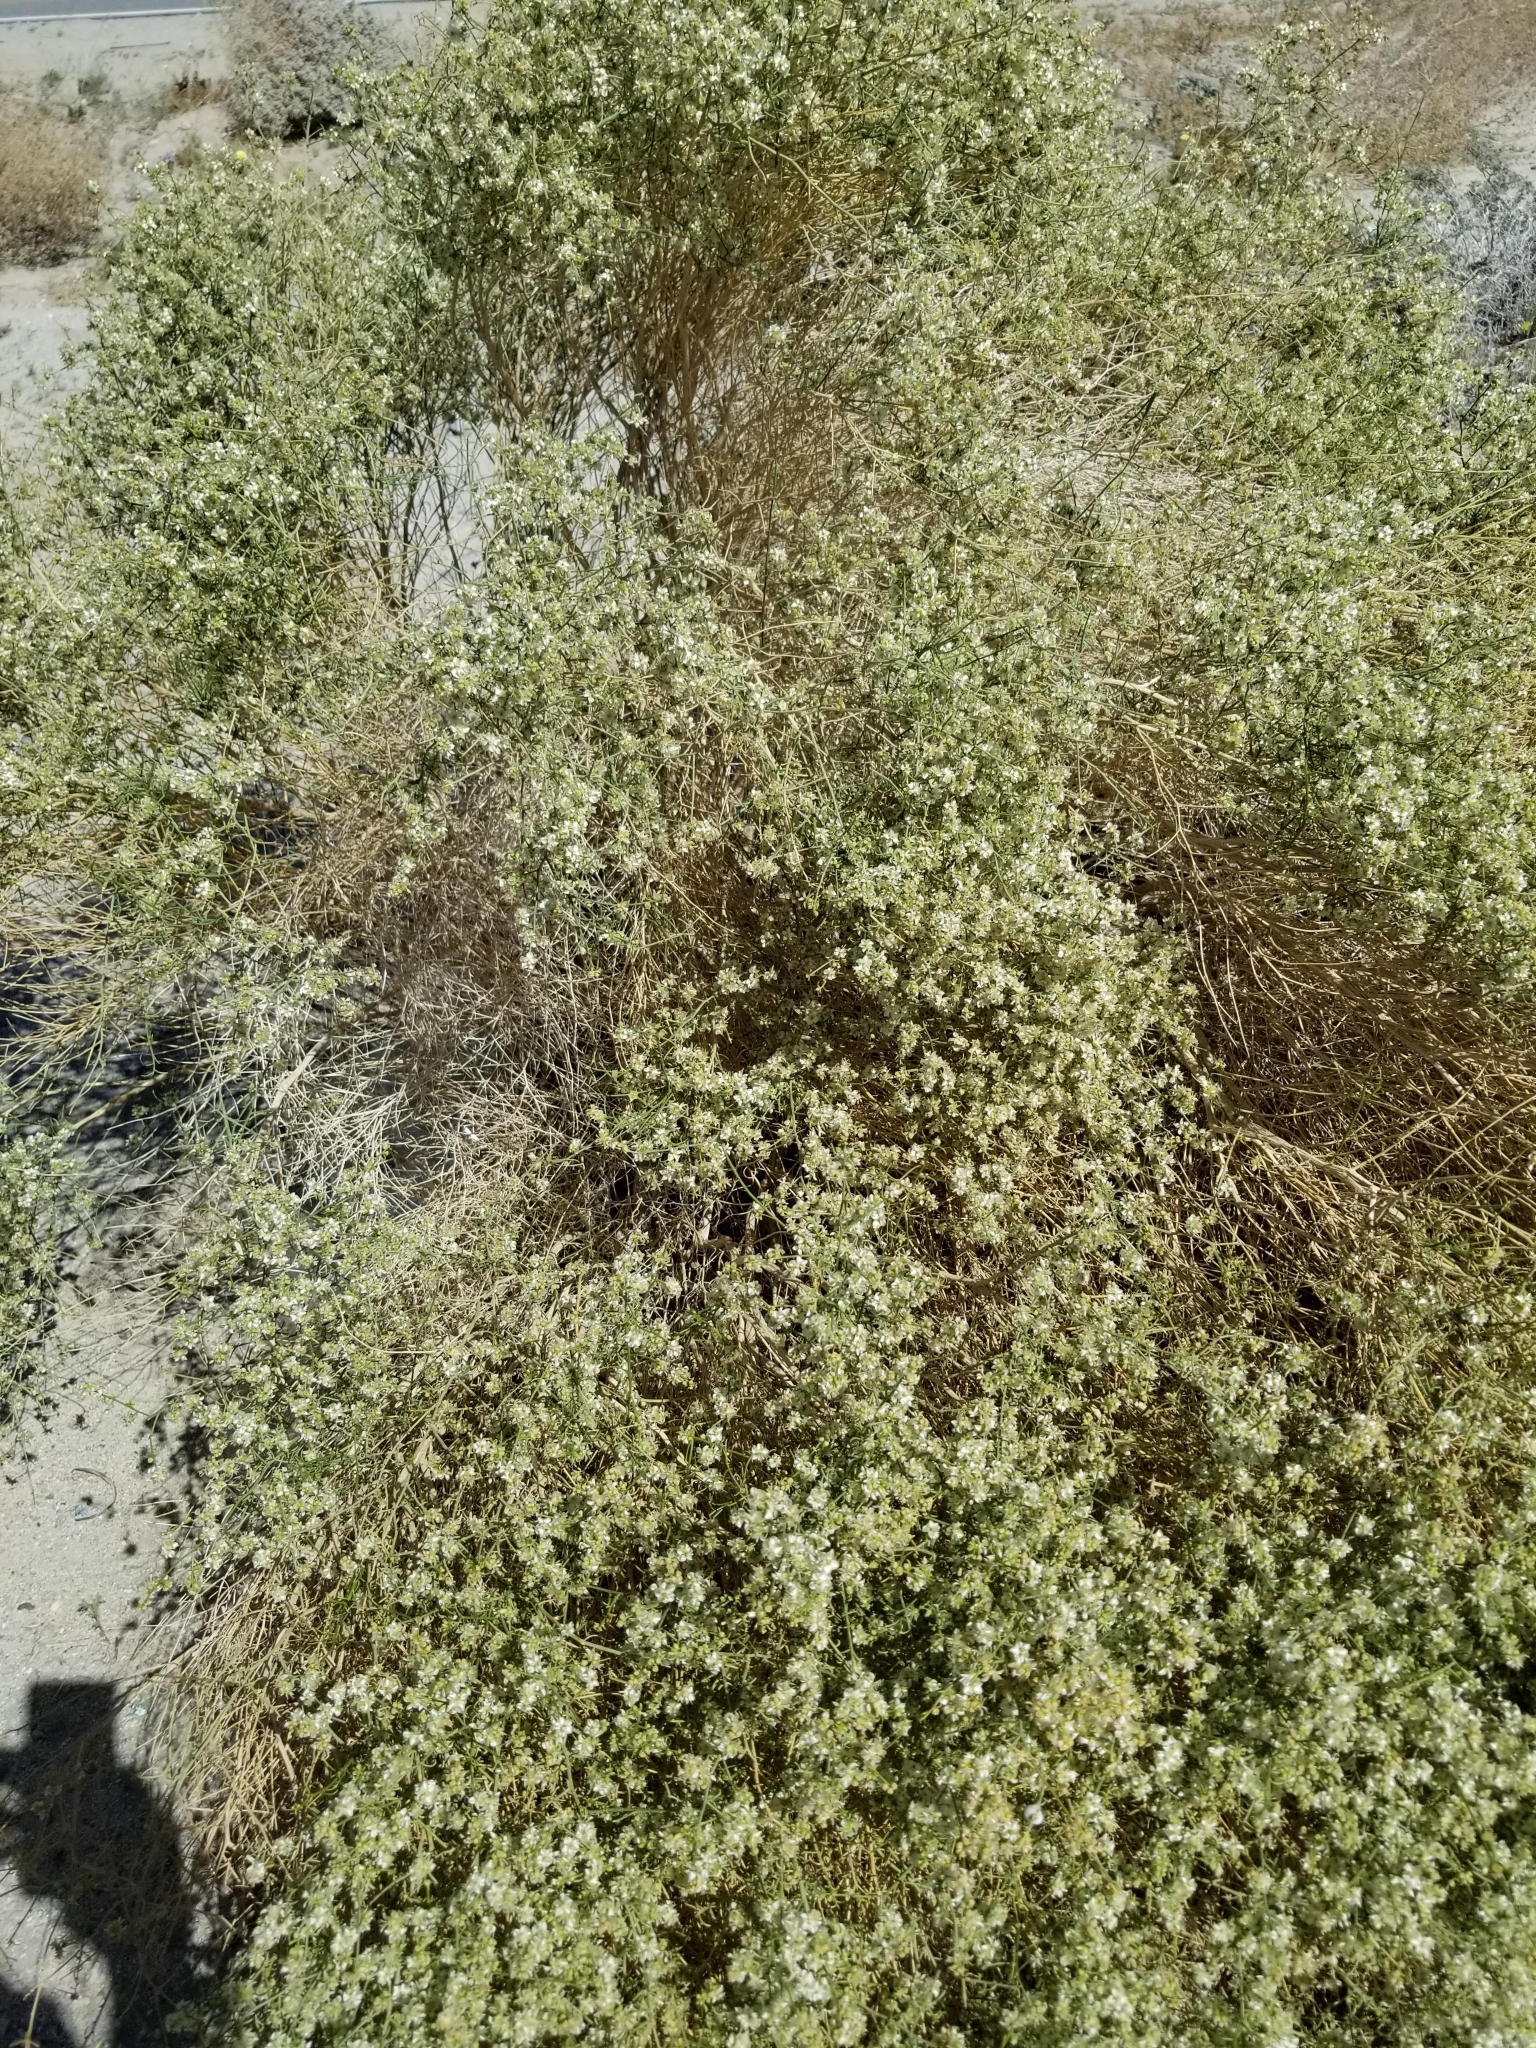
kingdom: Plantae
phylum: Tracheophyta
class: Magnoliopsida
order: Asterales
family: Asteraceae
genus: Ambrosia
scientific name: Ambrosia salsola
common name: Burrobrush
